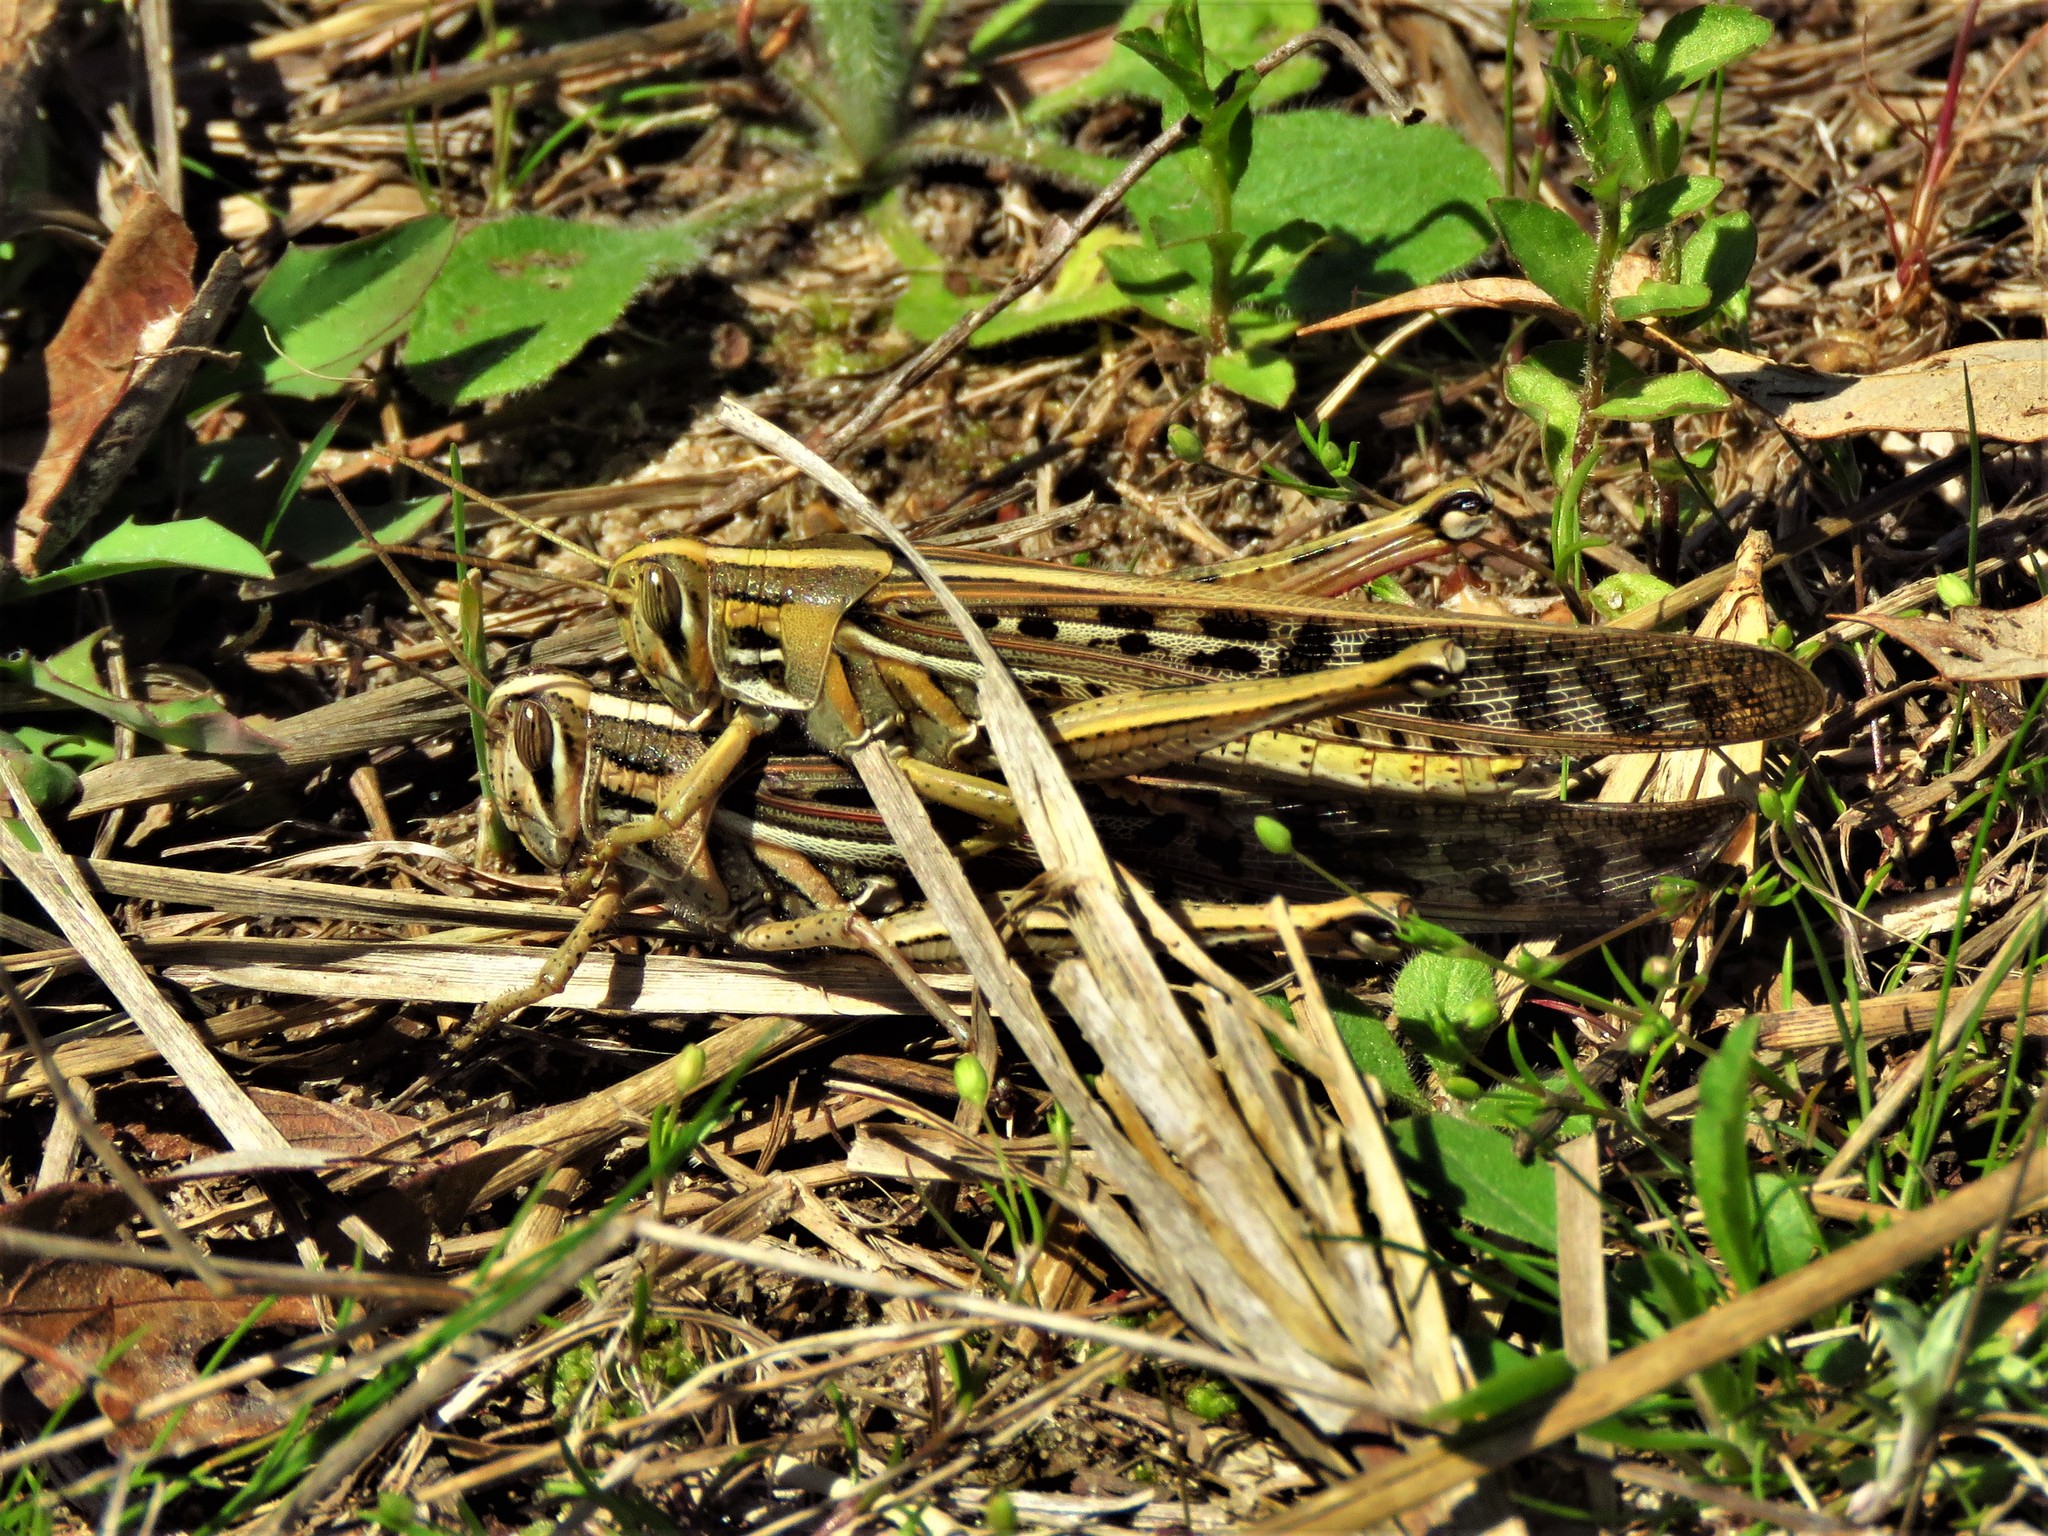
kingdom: Animalia
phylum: Arthropoda
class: Insecta
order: Orthoptera
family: Acrididae
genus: Schistocerca
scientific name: Schistocerca americana
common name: American bird locust
